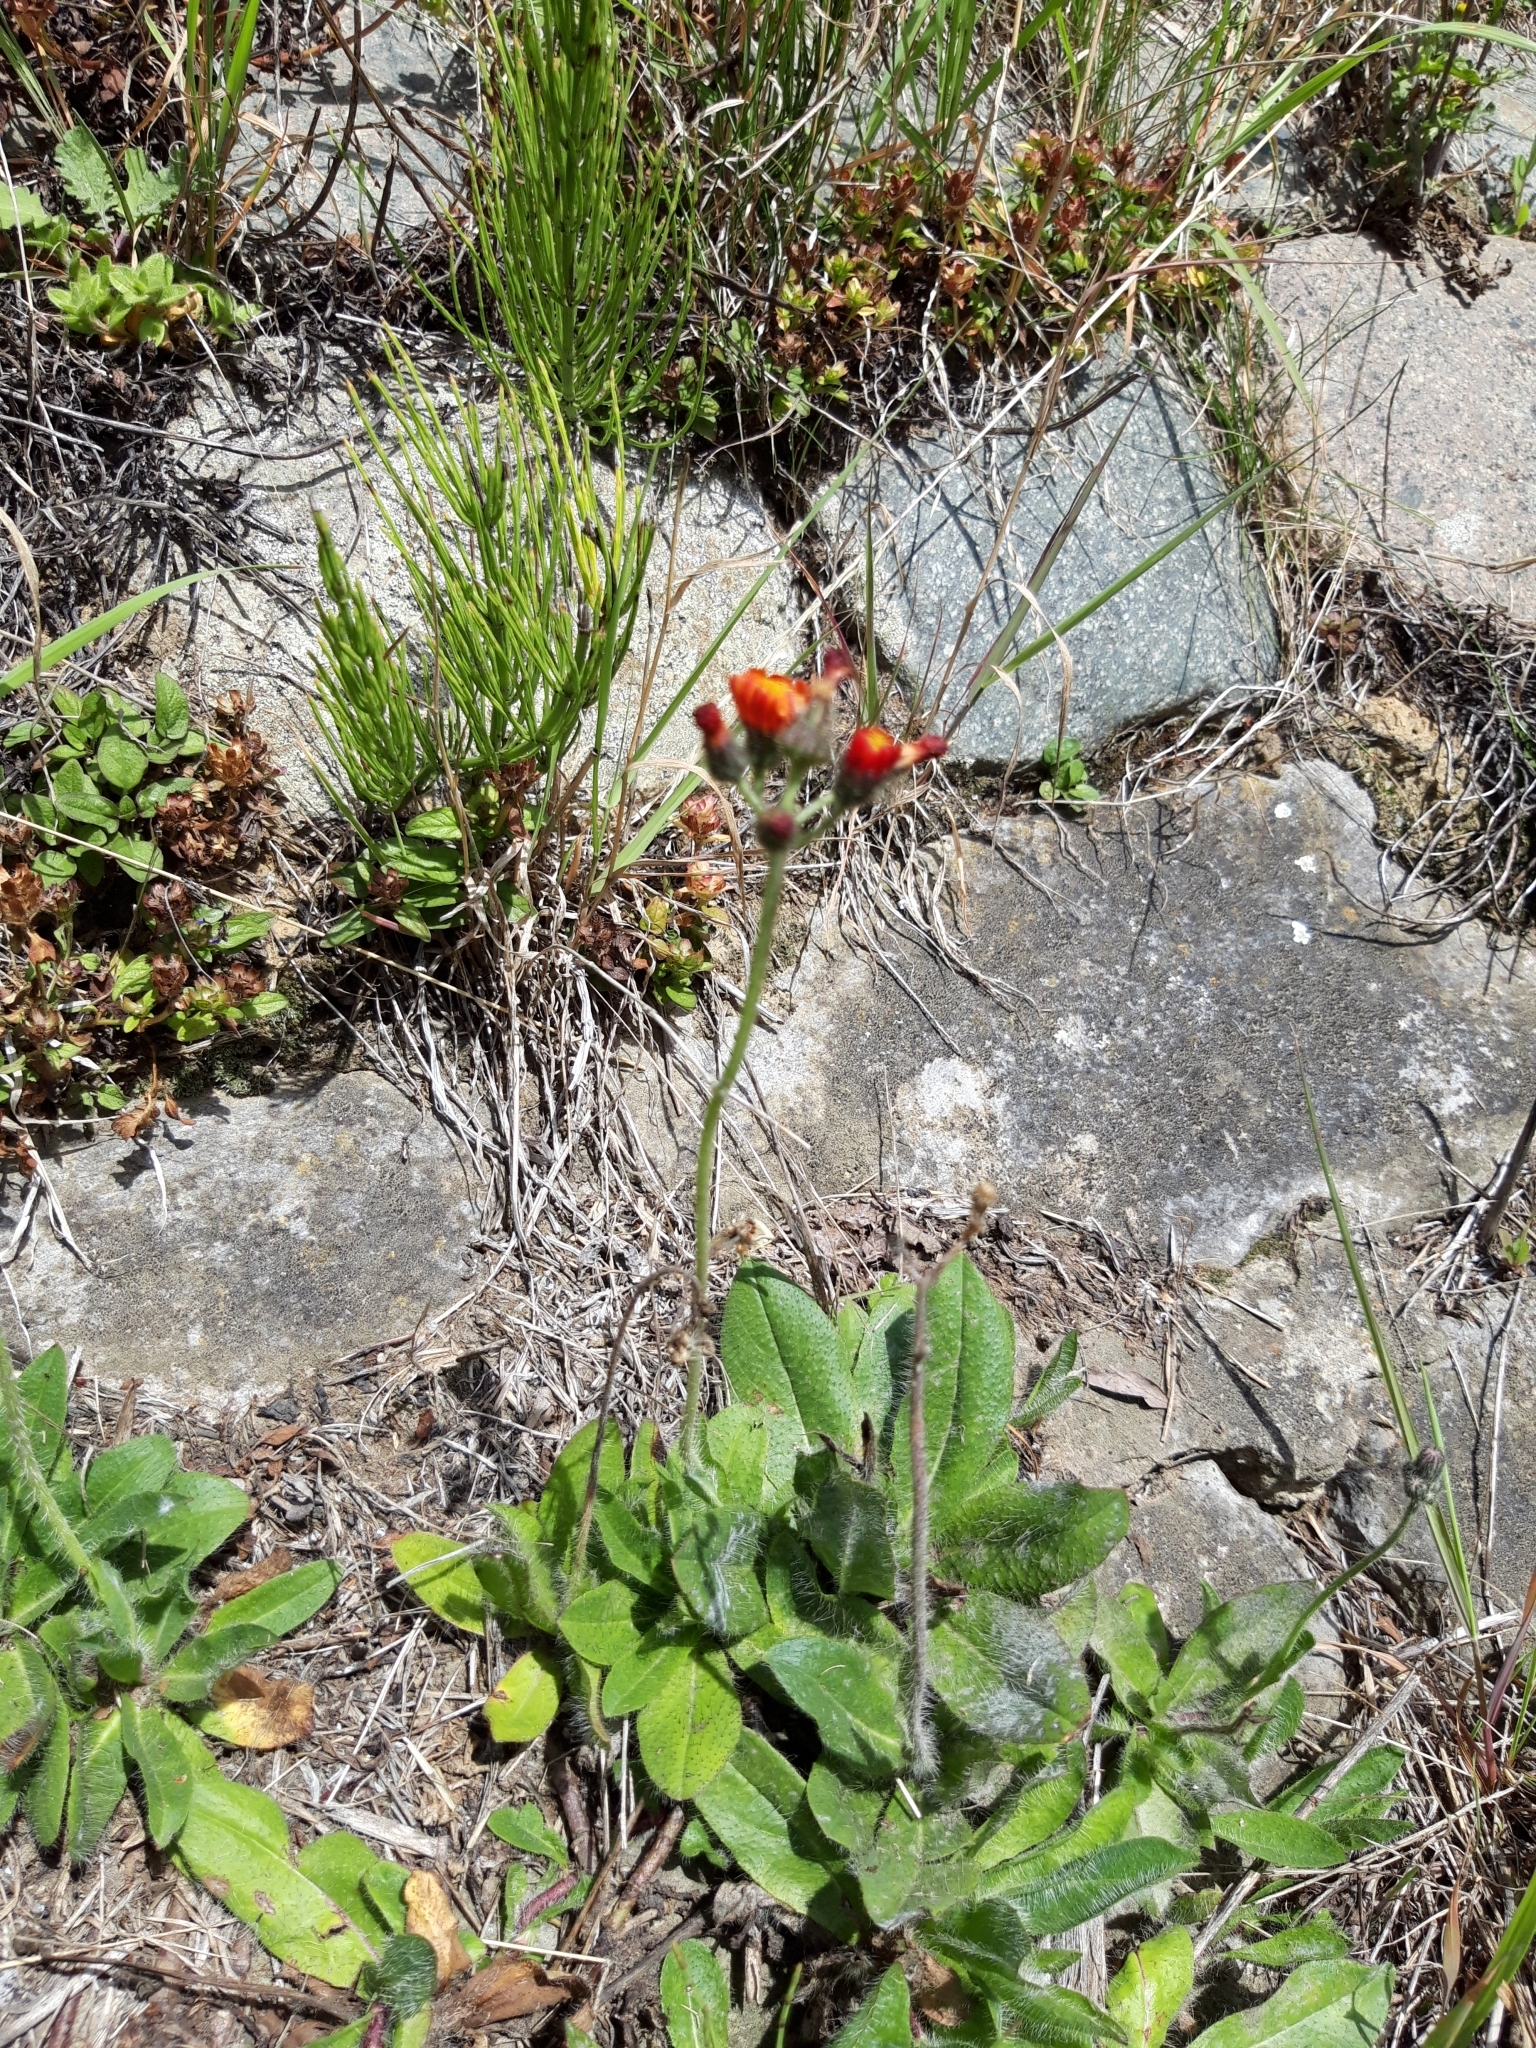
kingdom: Plantae
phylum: Tracheophyta
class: Magnoliopsida
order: Asterales
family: Asteraceae
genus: Pilosella
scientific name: Pilosella aurantiaca
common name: Fox-and-cubs
